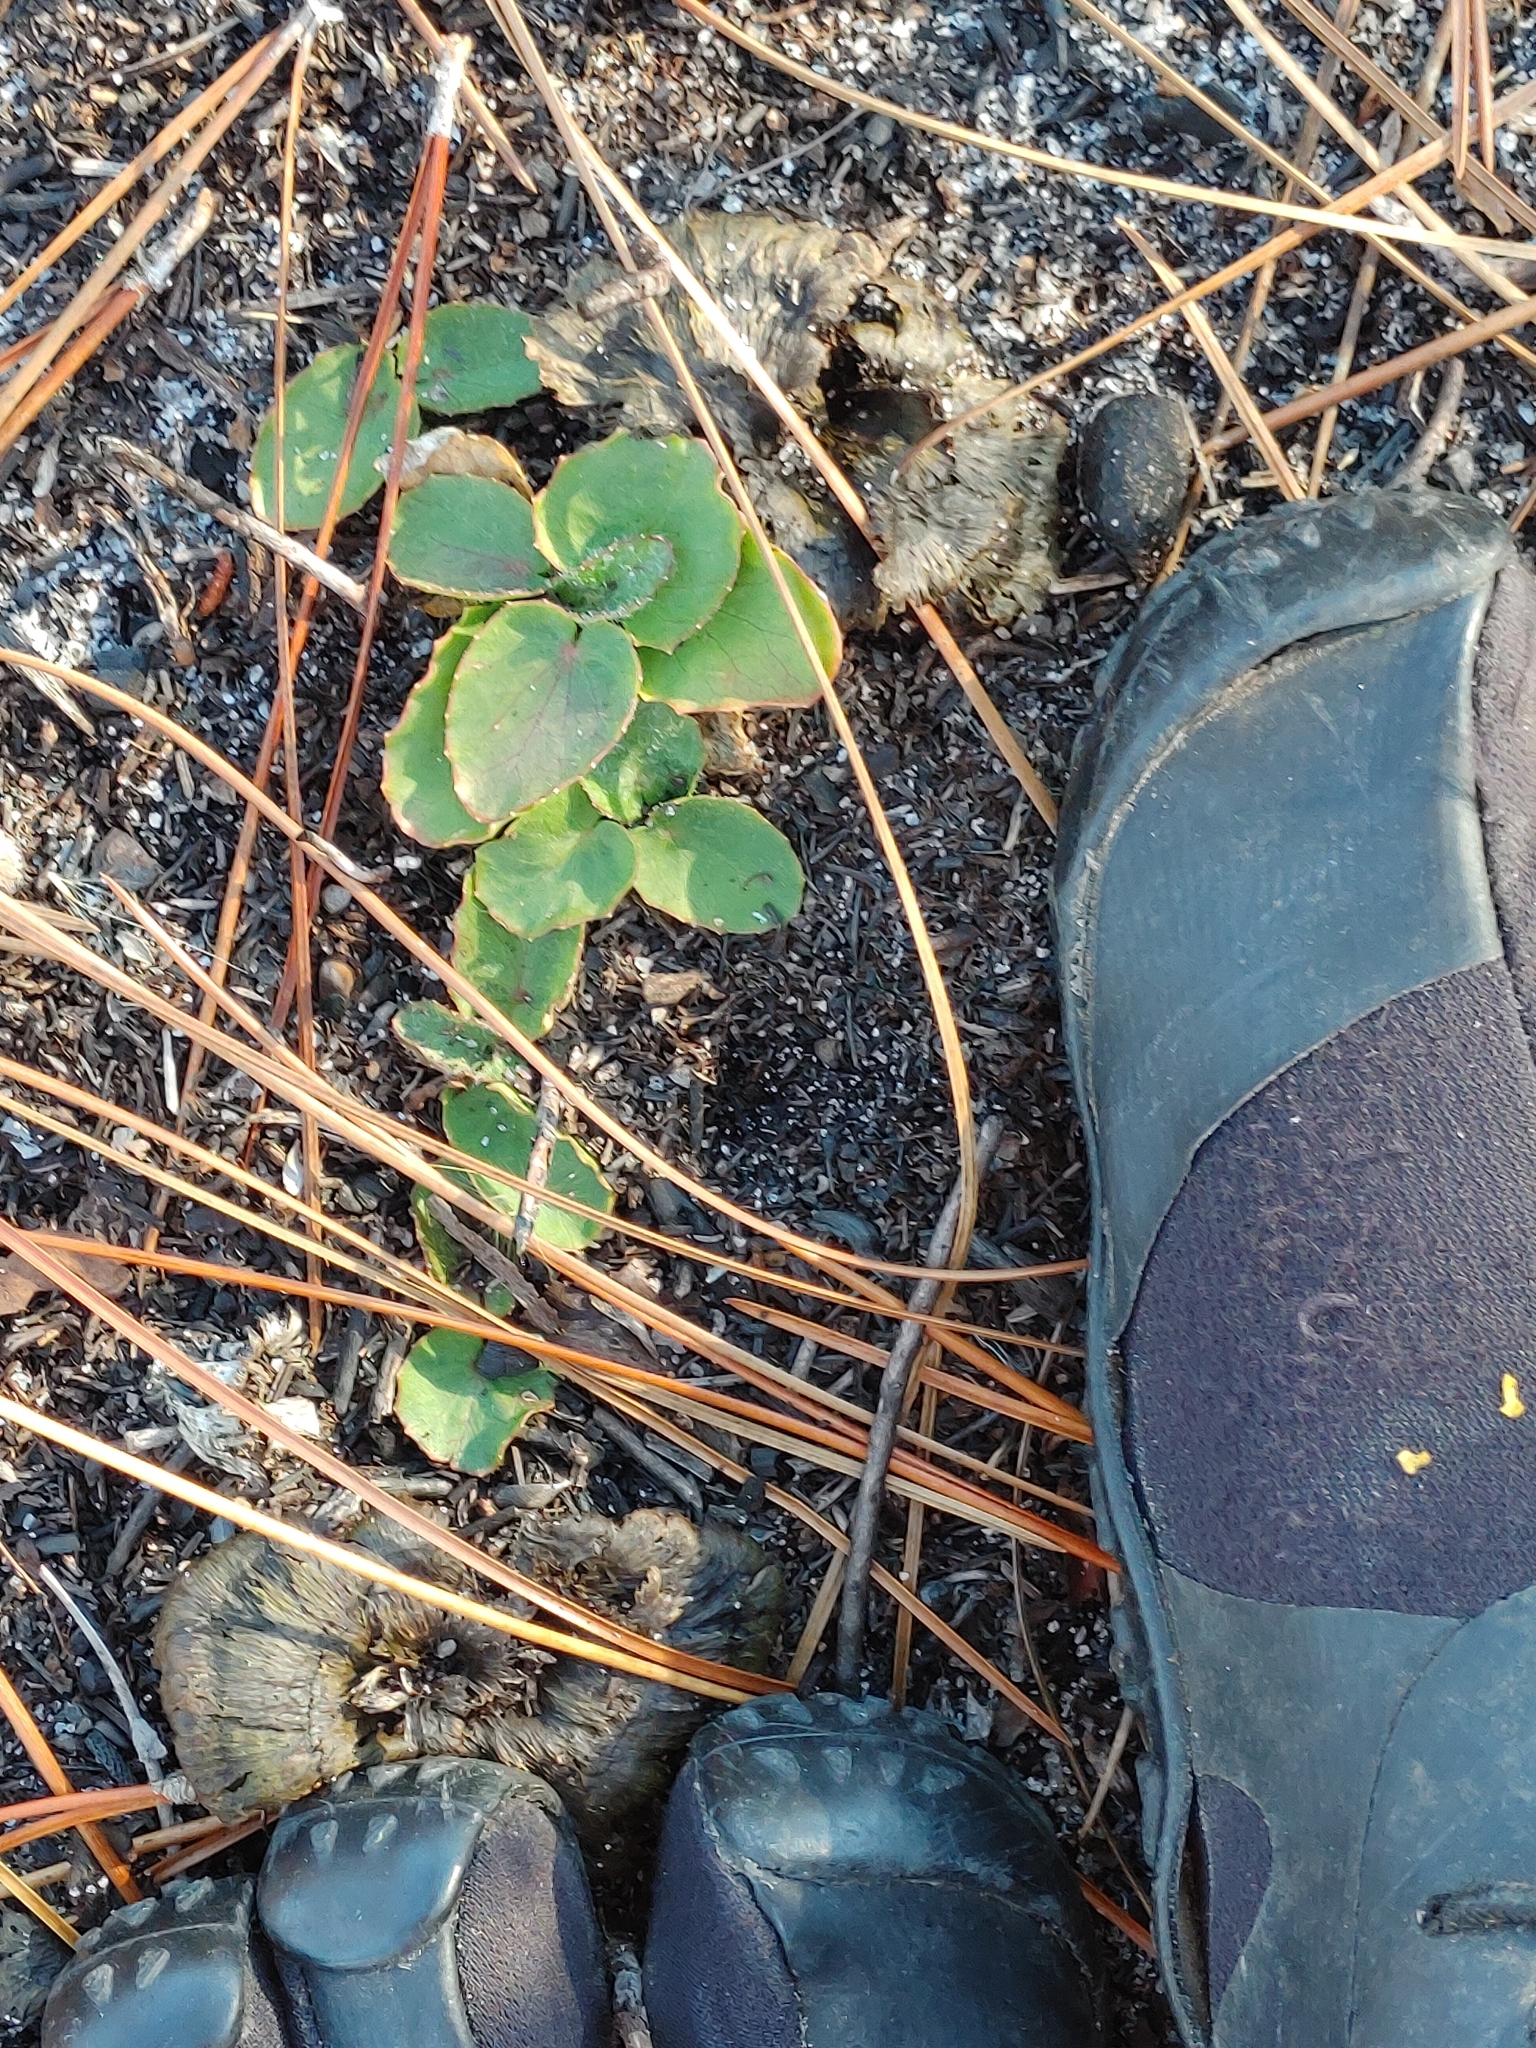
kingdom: Plantae
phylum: Tracheophyta
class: Magnoliopsida
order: Apiales
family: Apiaceae
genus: Centella
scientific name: Centella asiatica
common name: Spadeleaf
